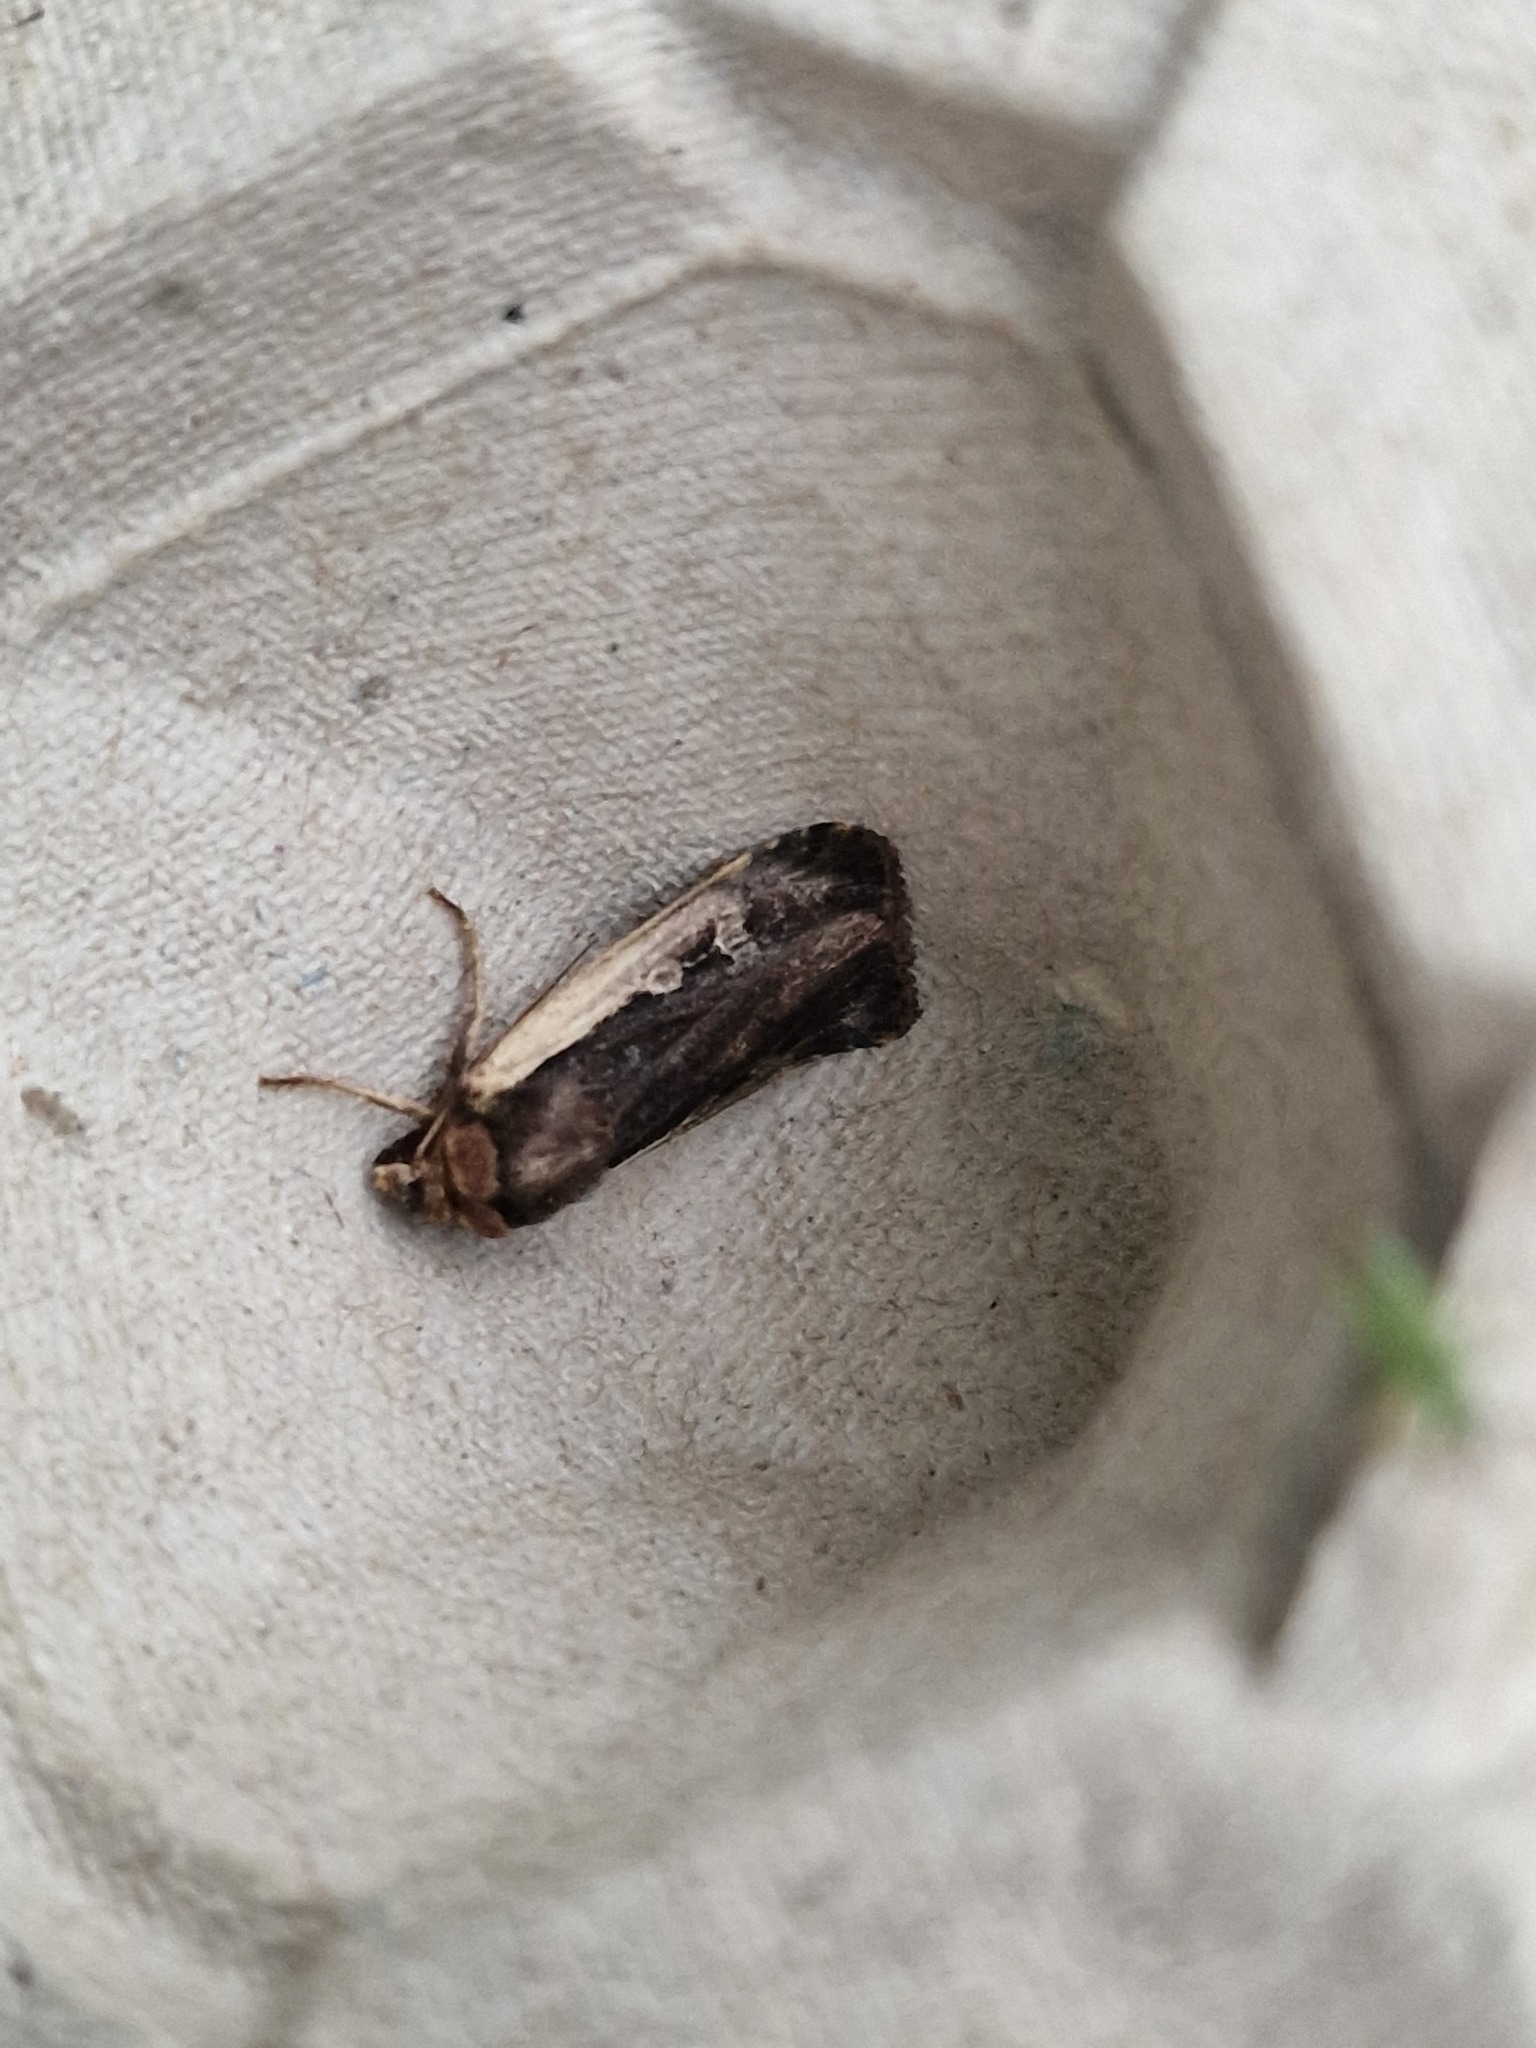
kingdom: Animalia
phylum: Arthropoda
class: Insecta
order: Lepidoptera
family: Noctuidae
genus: Ochropleura
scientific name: Ochropleura plecta
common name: Flame shoulder
